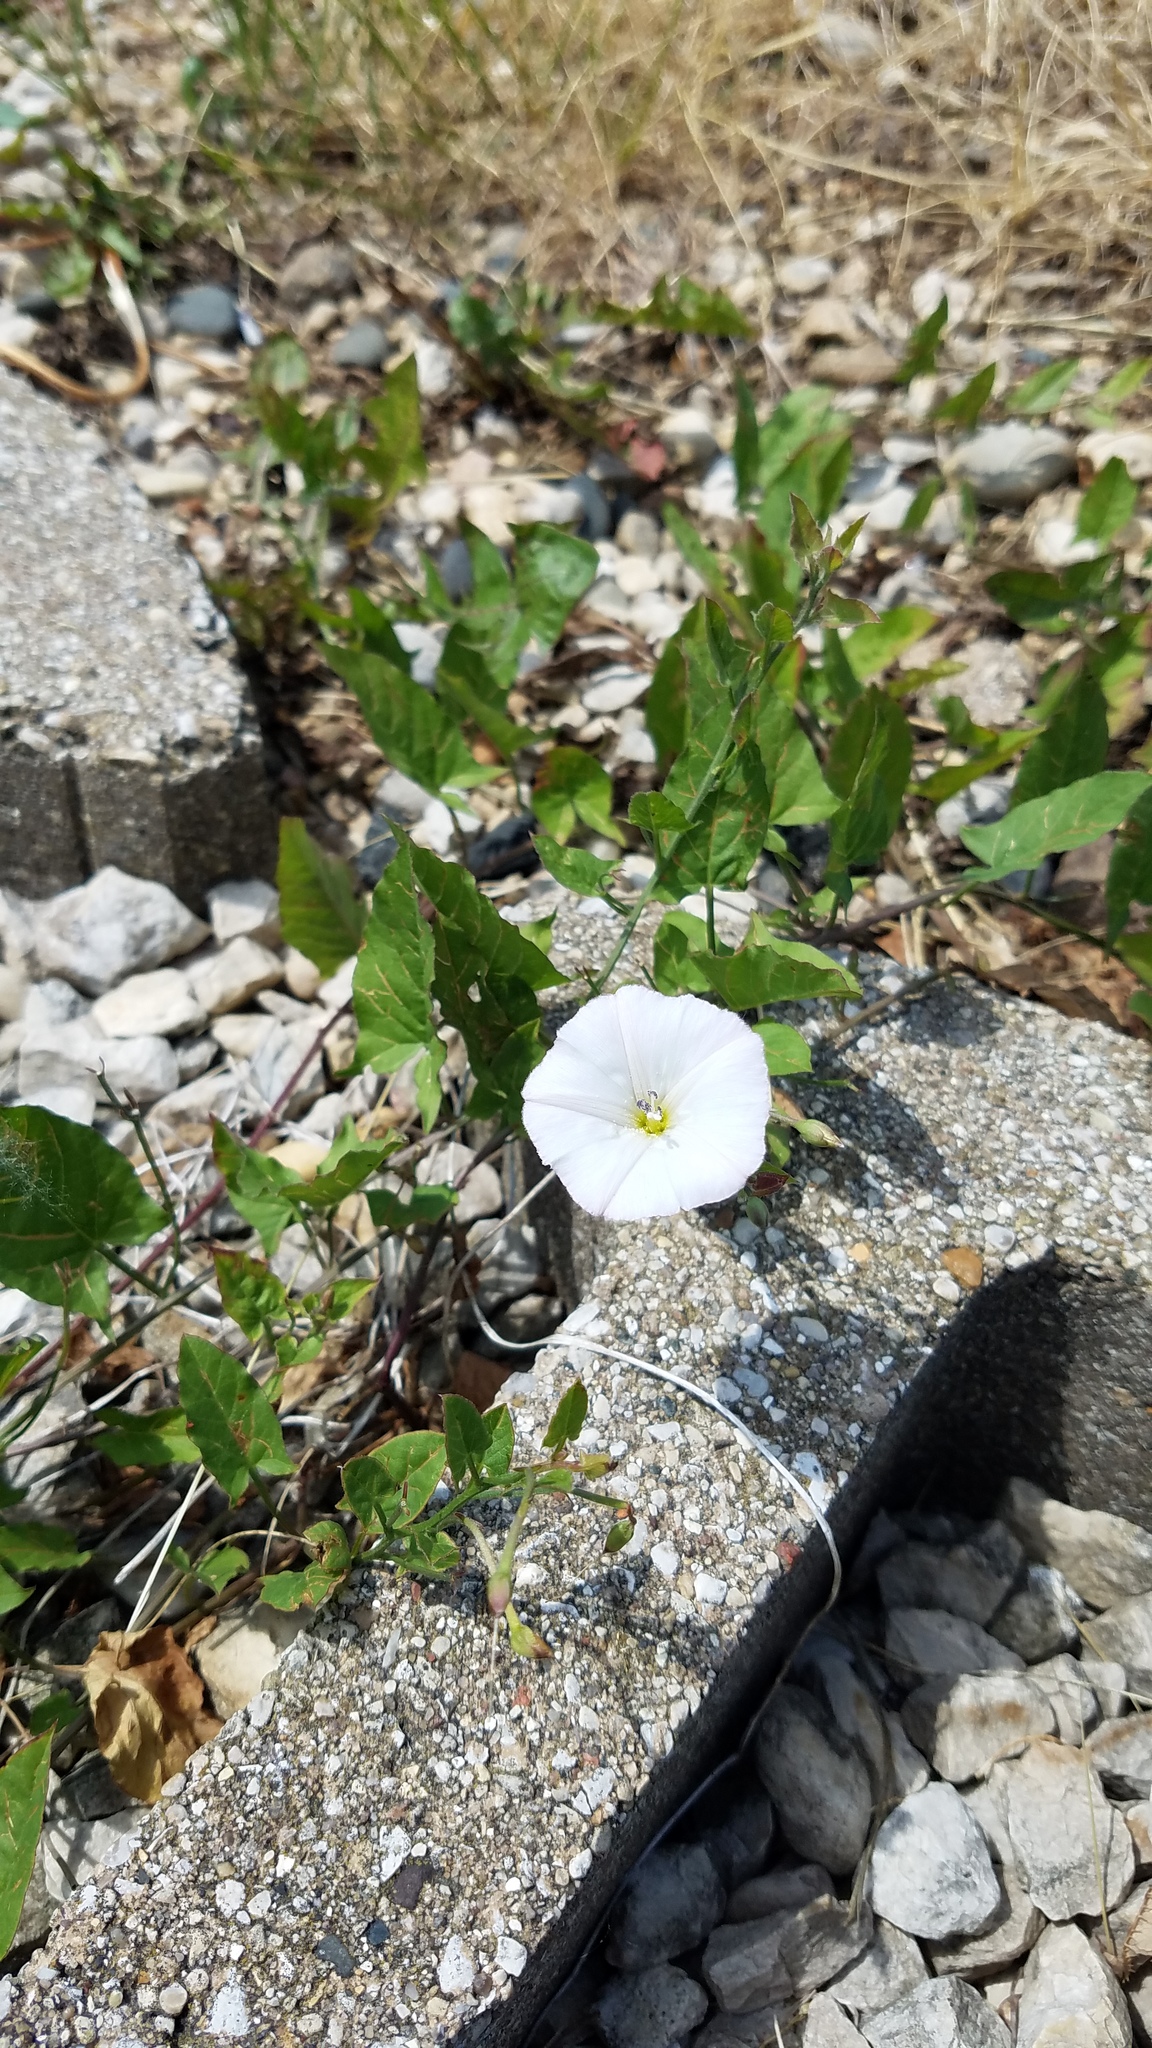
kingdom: Plantae
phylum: Tracheophyta
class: Magnoliopsida
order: Solanales
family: Convolvulaceae
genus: Convolvulus
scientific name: Convolvulus arvensis
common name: Field bindweed
